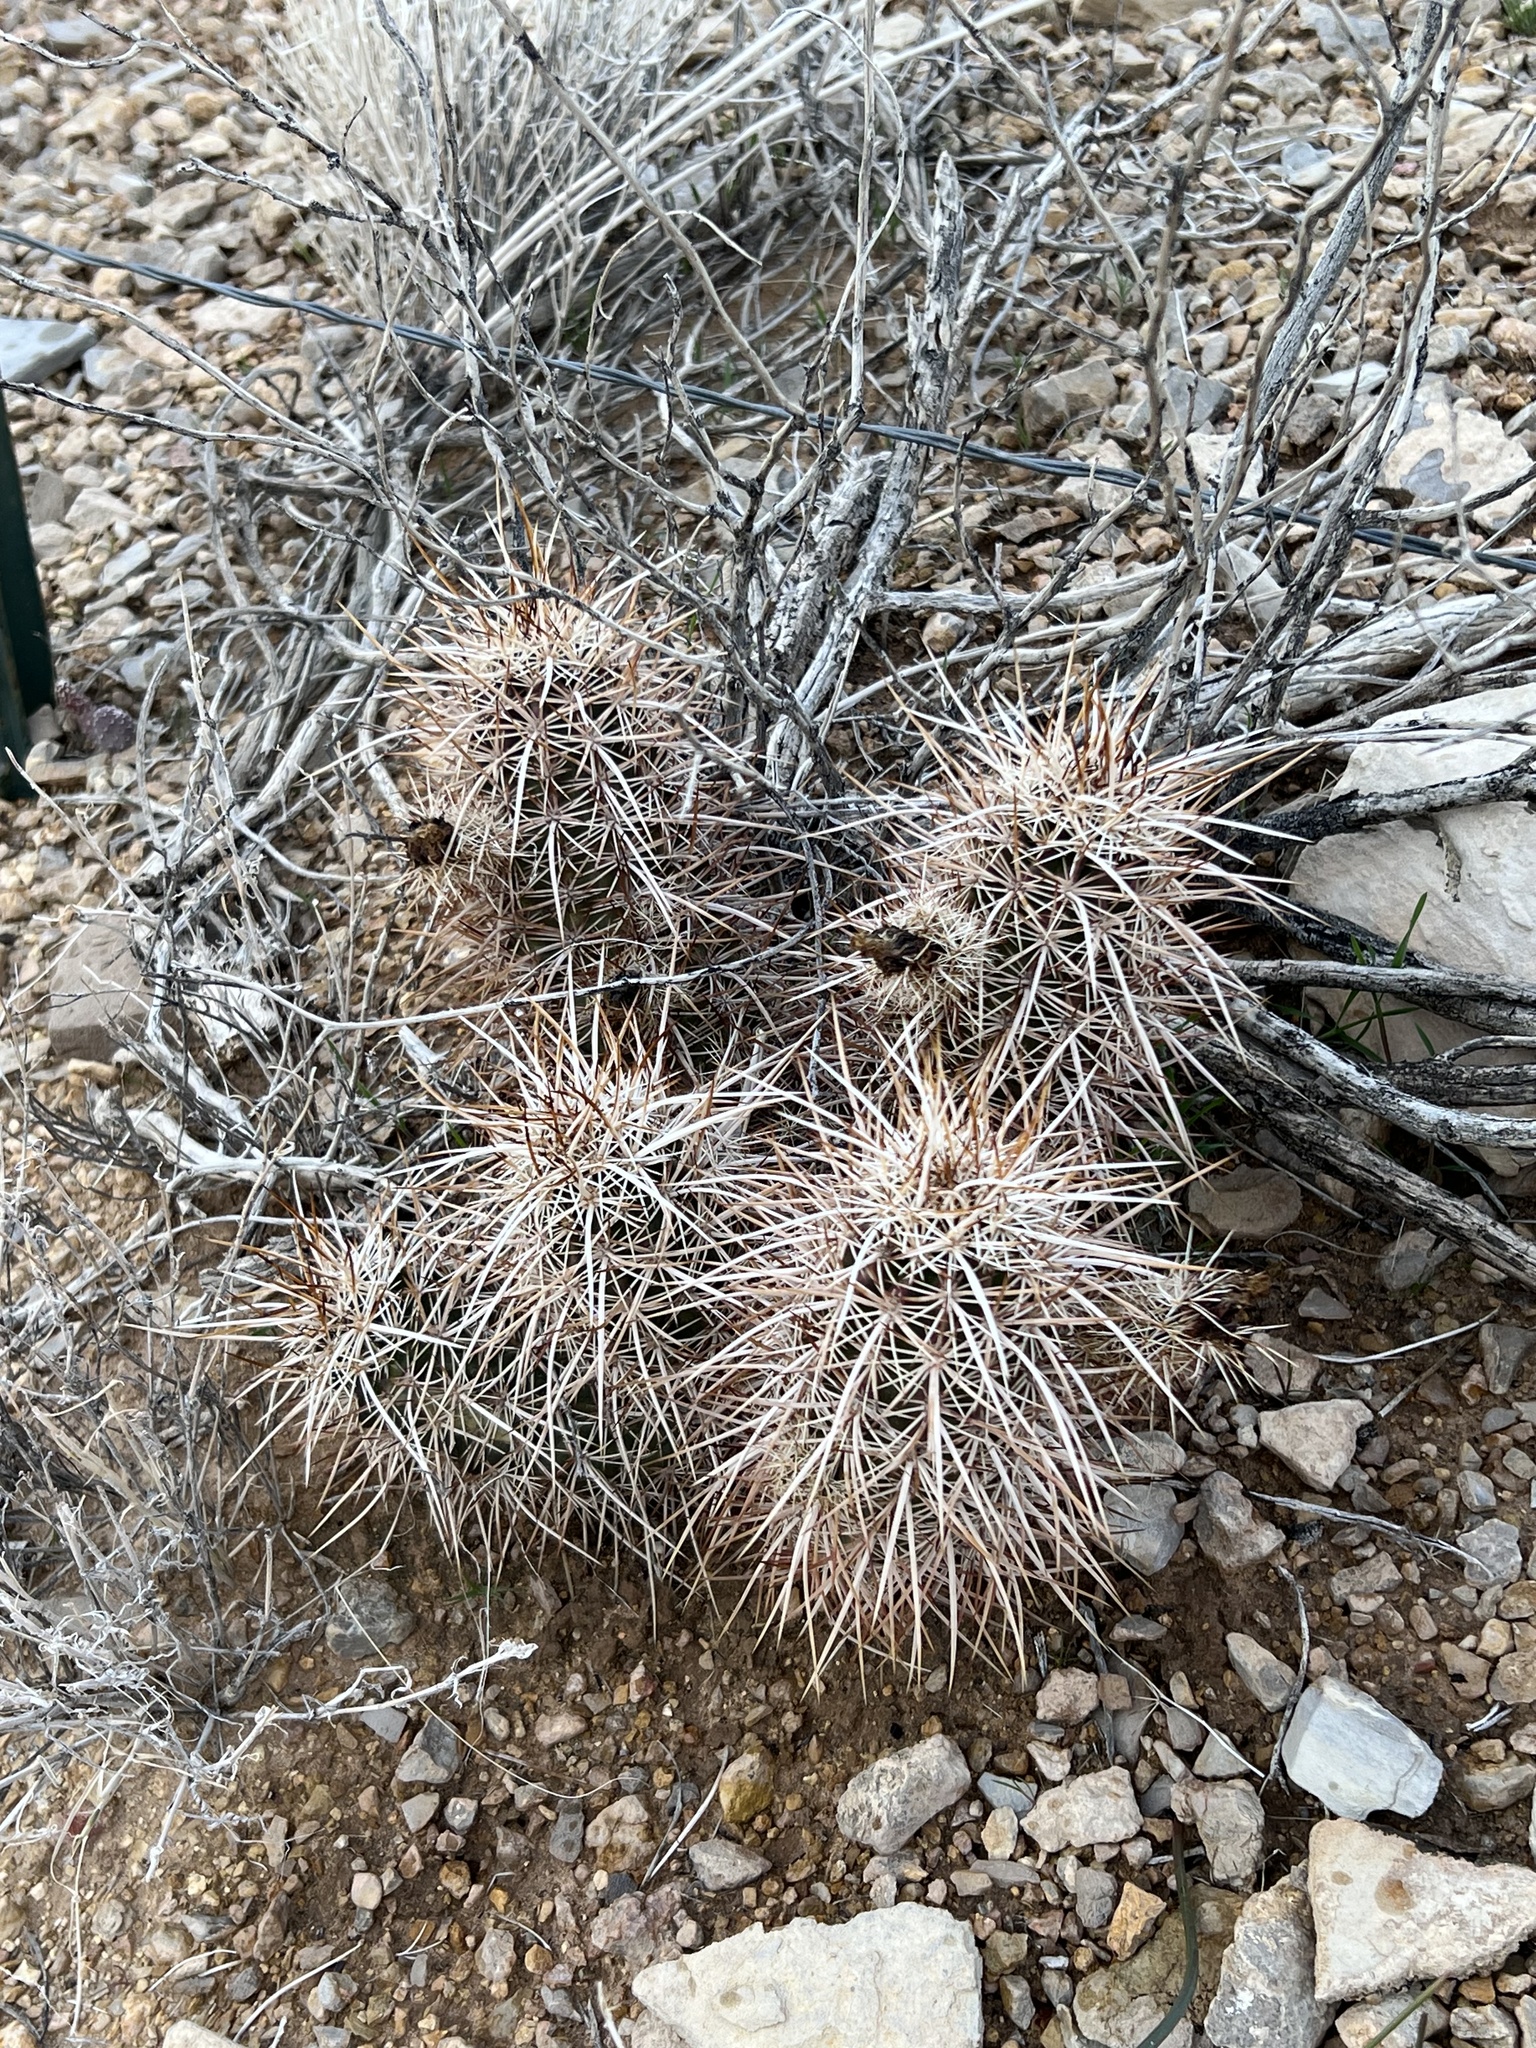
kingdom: Plantae
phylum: Tracheophyta
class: Magnoliopsida
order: Caryophyllales
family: Cactaceae
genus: Echinocereus
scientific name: Echinocereus engelmannii
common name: Engelmann's hedgehog cactus
